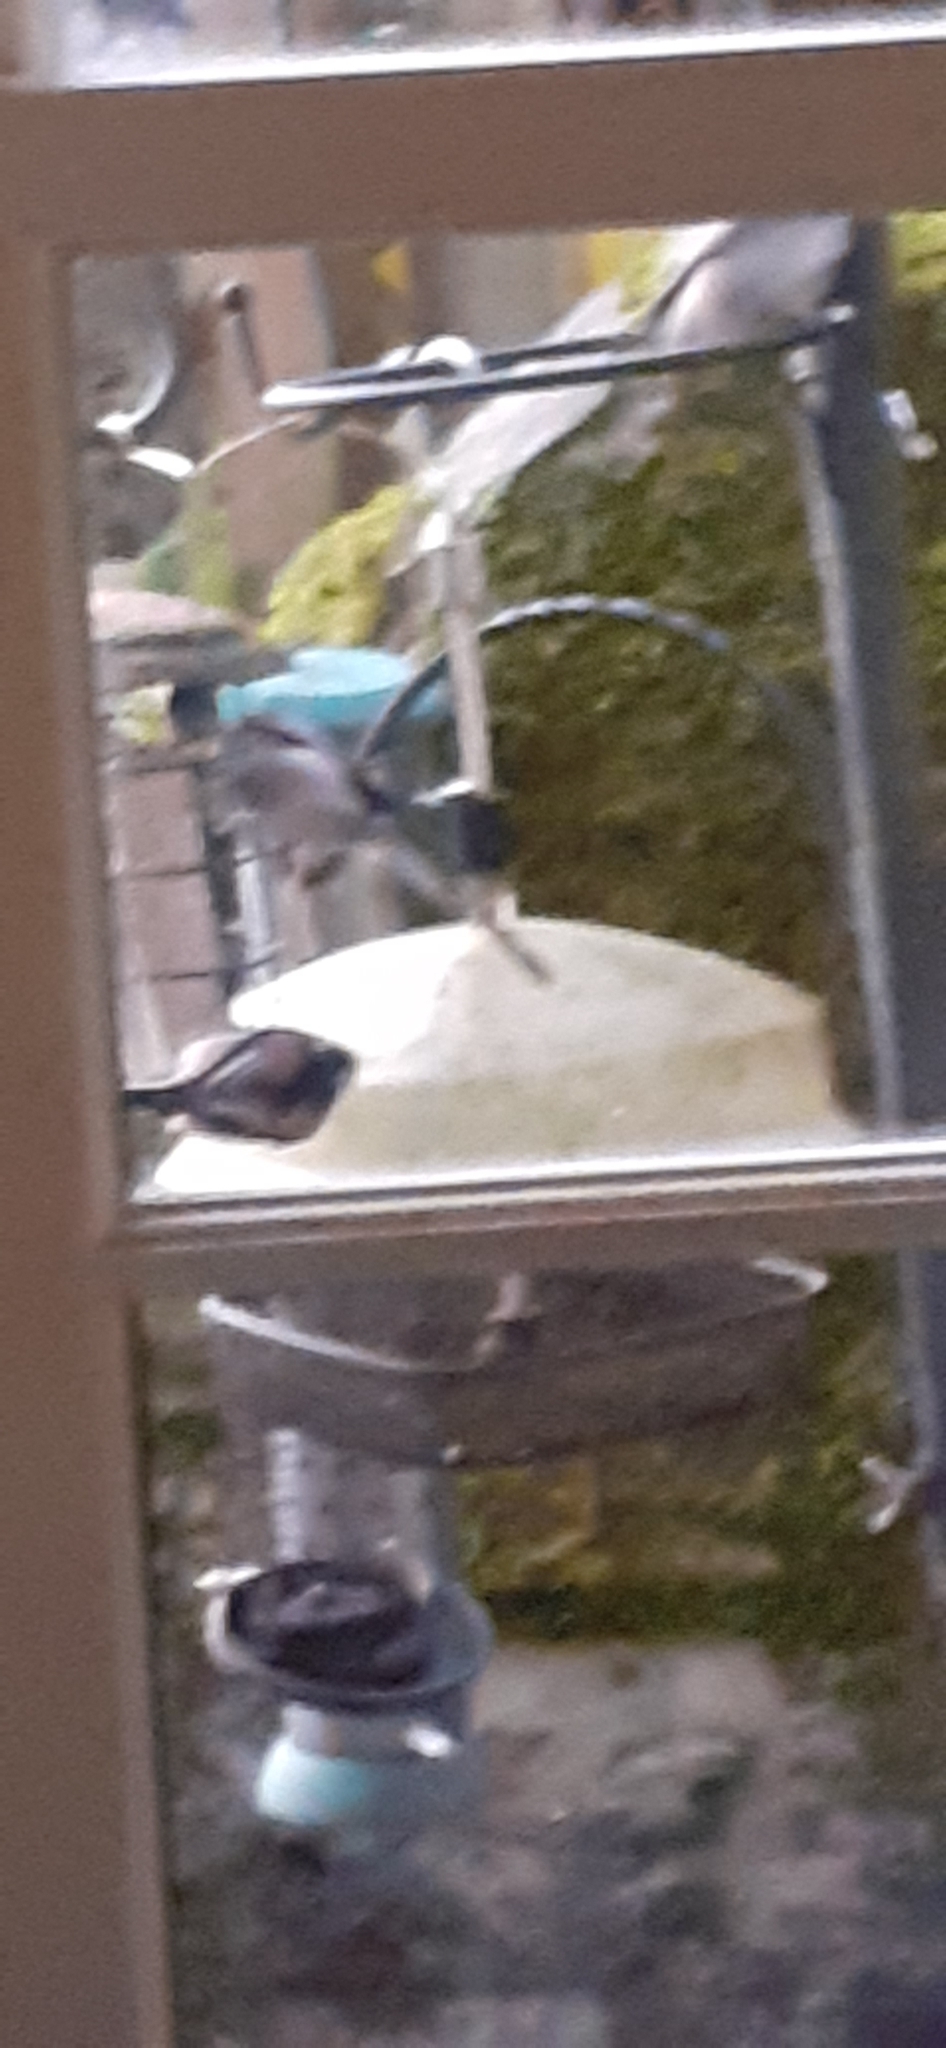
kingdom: Animalia
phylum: Chordata
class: Aves
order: Passeriformes
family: Aegithalidae
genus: Aegithalos
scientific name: Aegithalos caudatus
